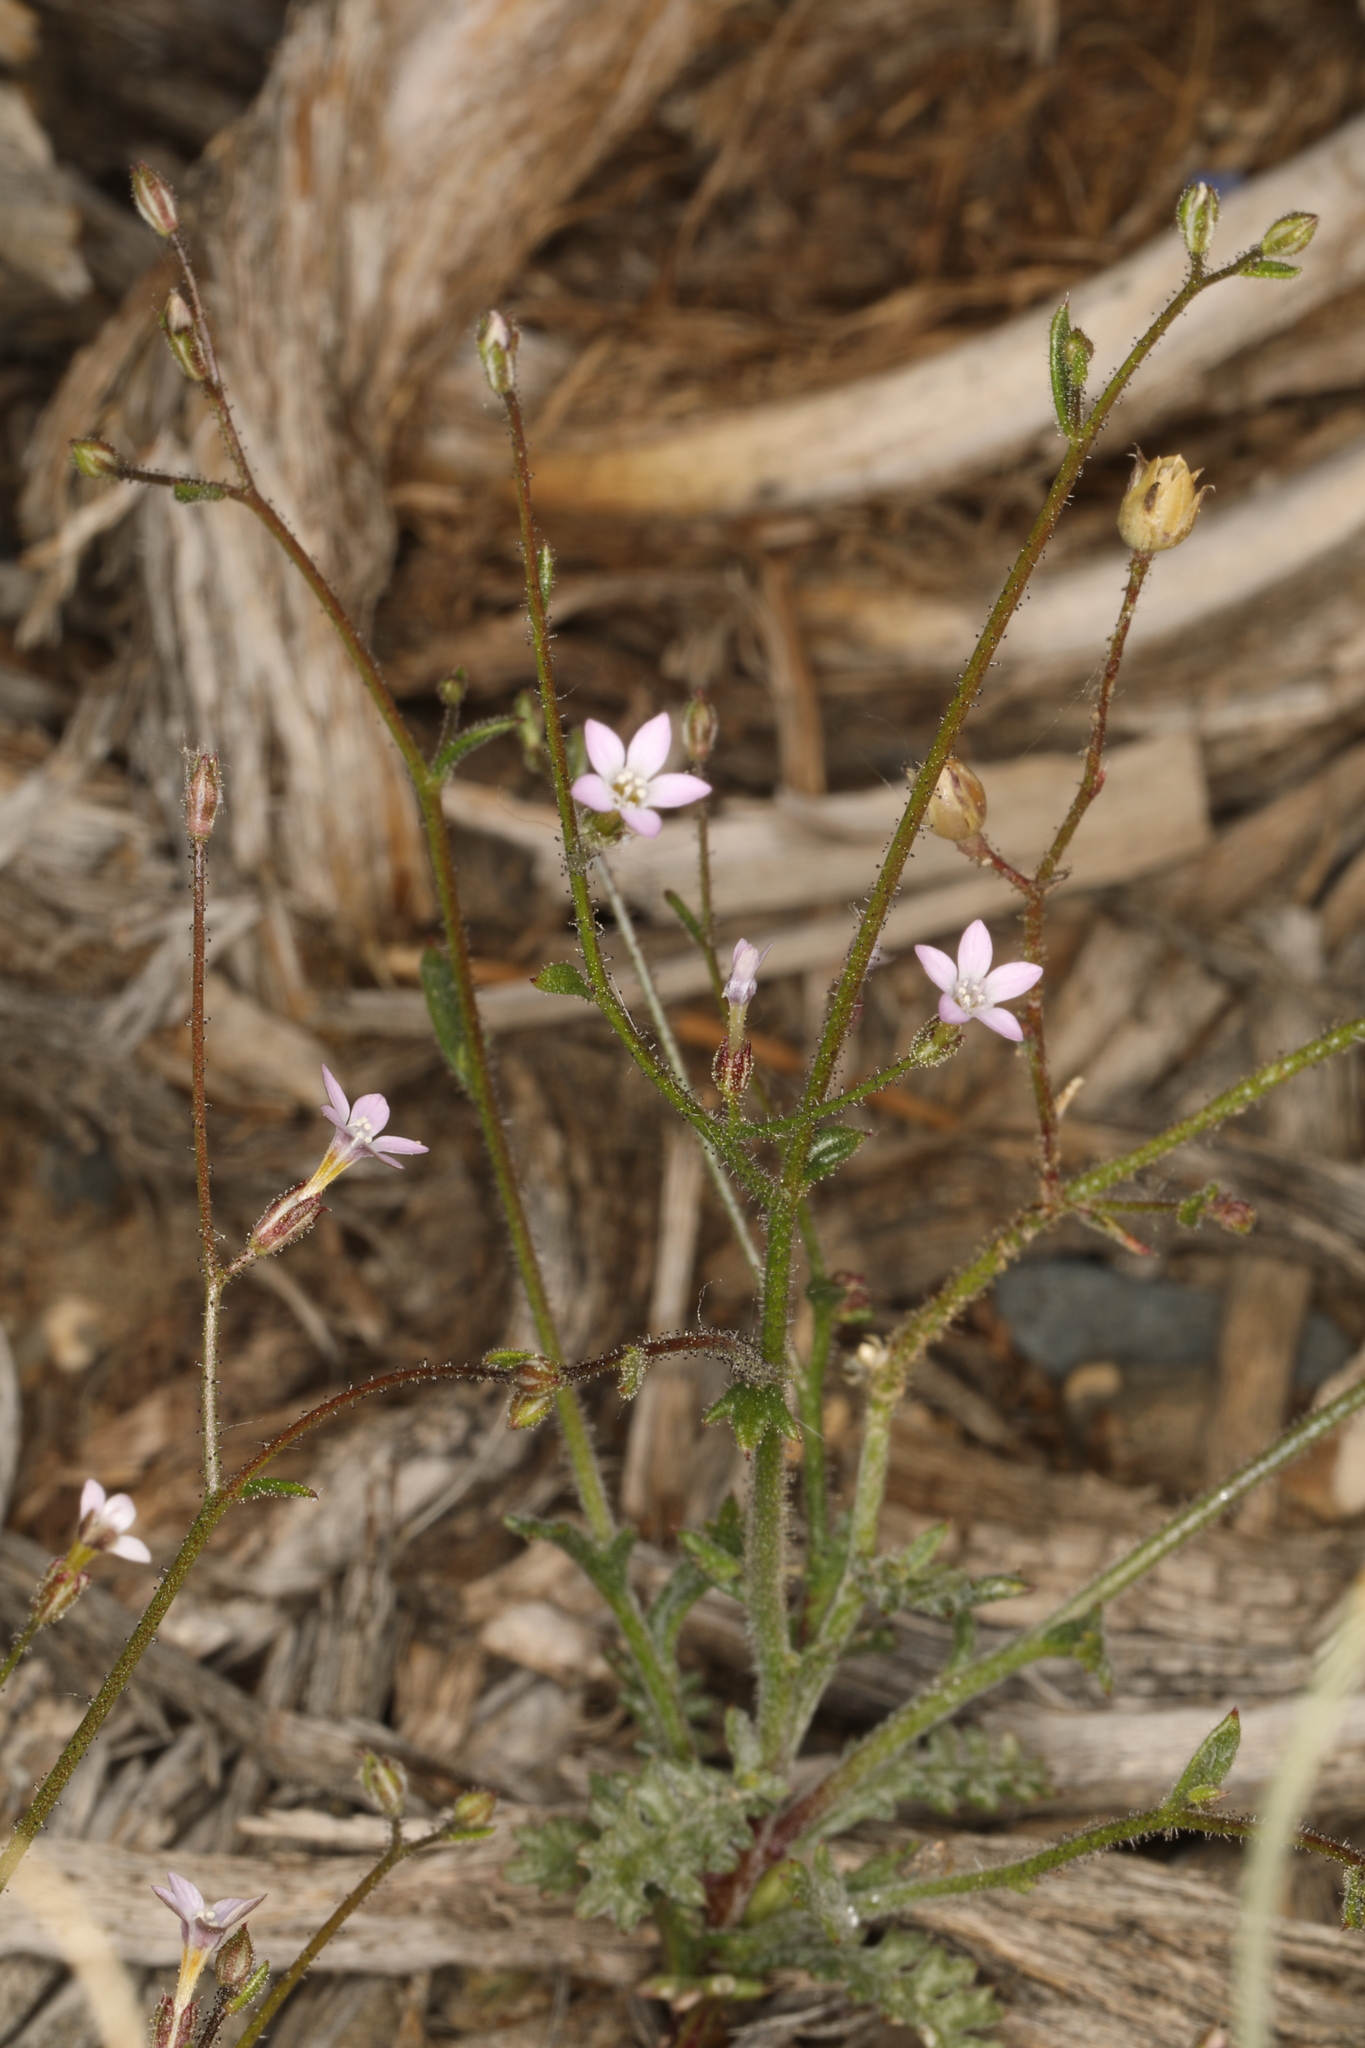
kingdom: Plantae
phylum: Tracheophyta
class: Magnoliopsida
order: Ericales
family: Polemoniaceae
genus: Gilia
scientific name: Gilia ophthalmoides
